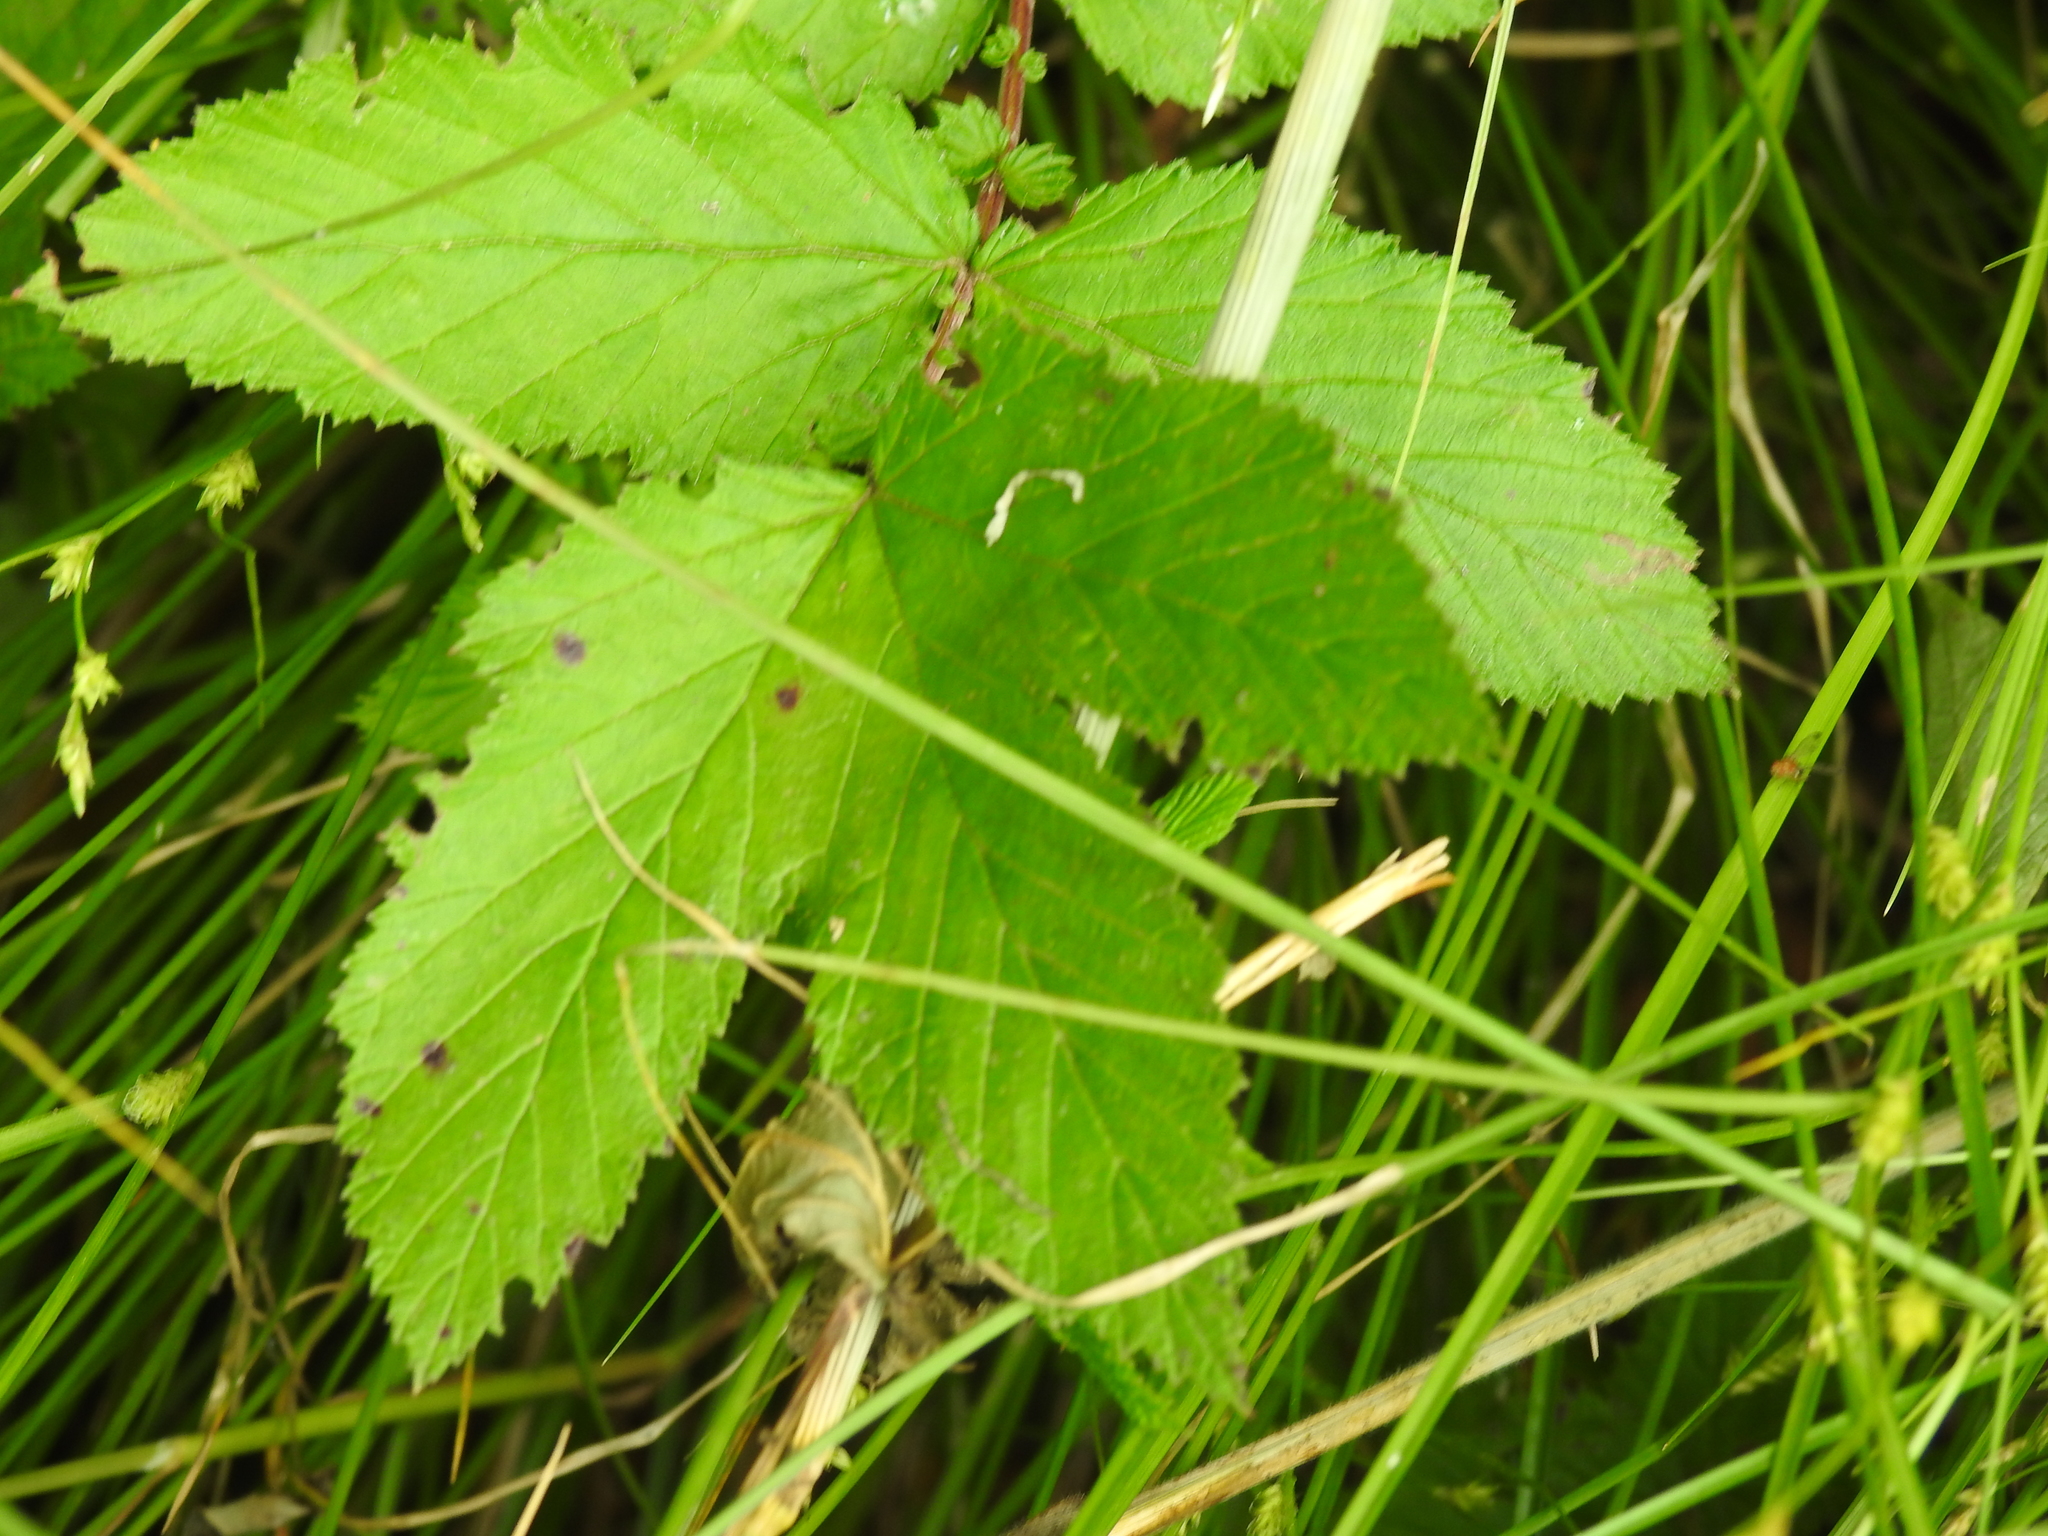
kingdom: Plantae
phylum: Tracheophyta
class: Magnoliopsida
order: Rosales
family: Rosaceae
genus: Filipendula
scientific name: Filipendula ulmaria
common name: Meadowsweet
